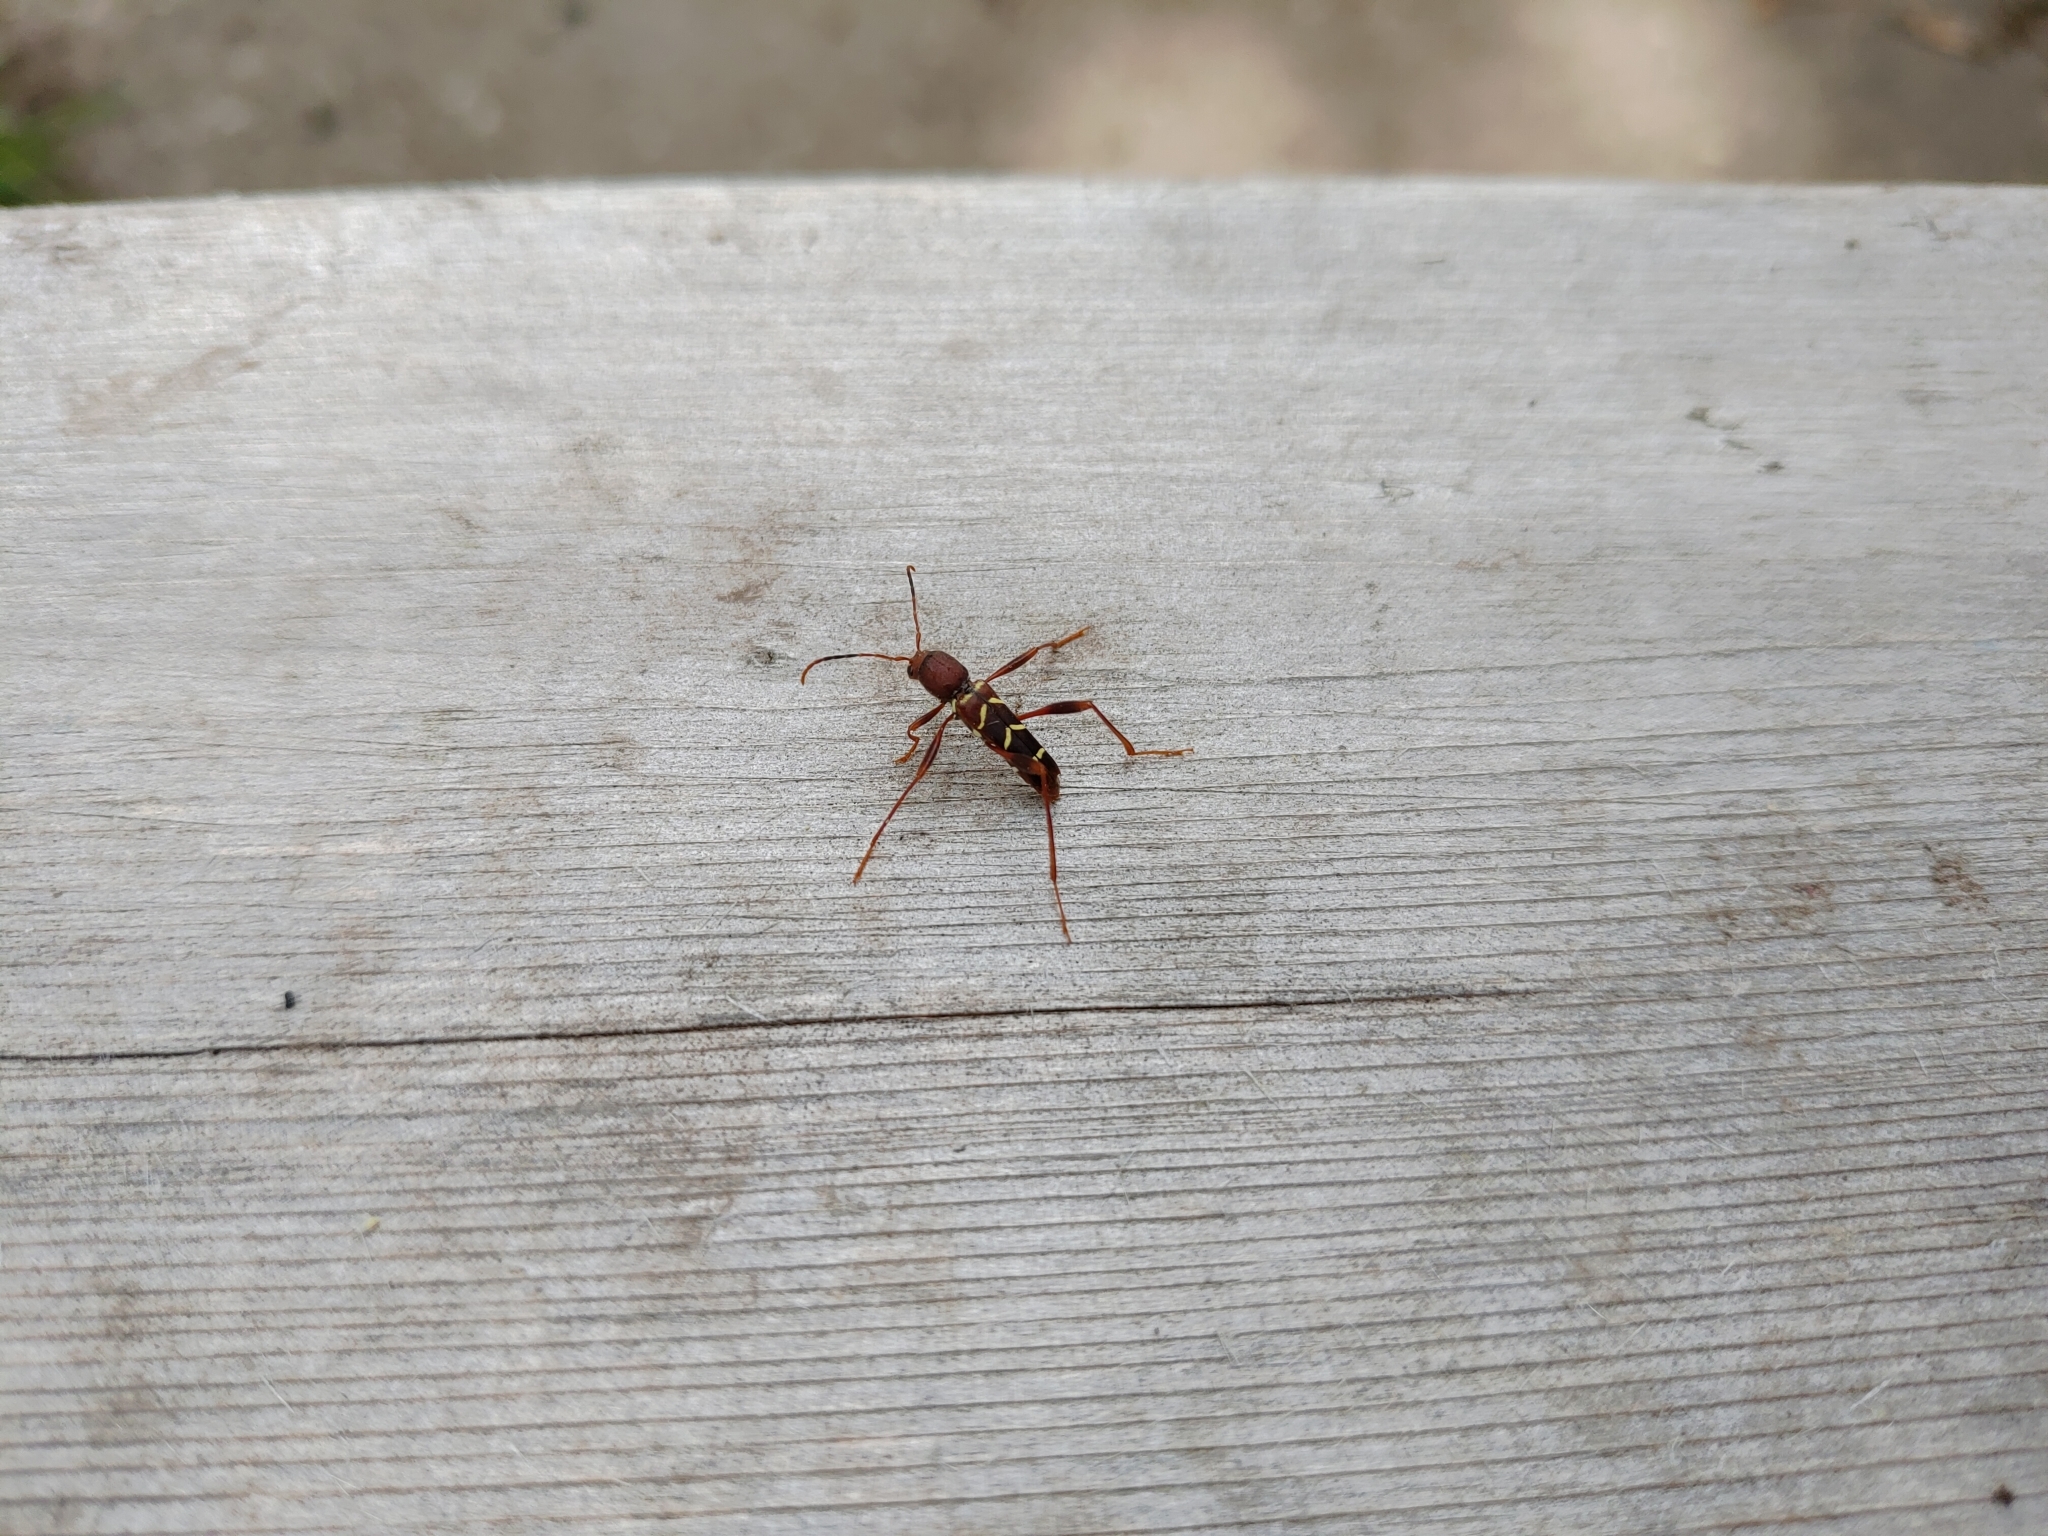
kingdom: Animalia
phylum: Arthropoda
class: Insecta
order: Coleoptera
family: Cerambycidae
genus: Neoclytus
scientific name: Neoclytus acuminatus
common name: Read-headed ash borer
